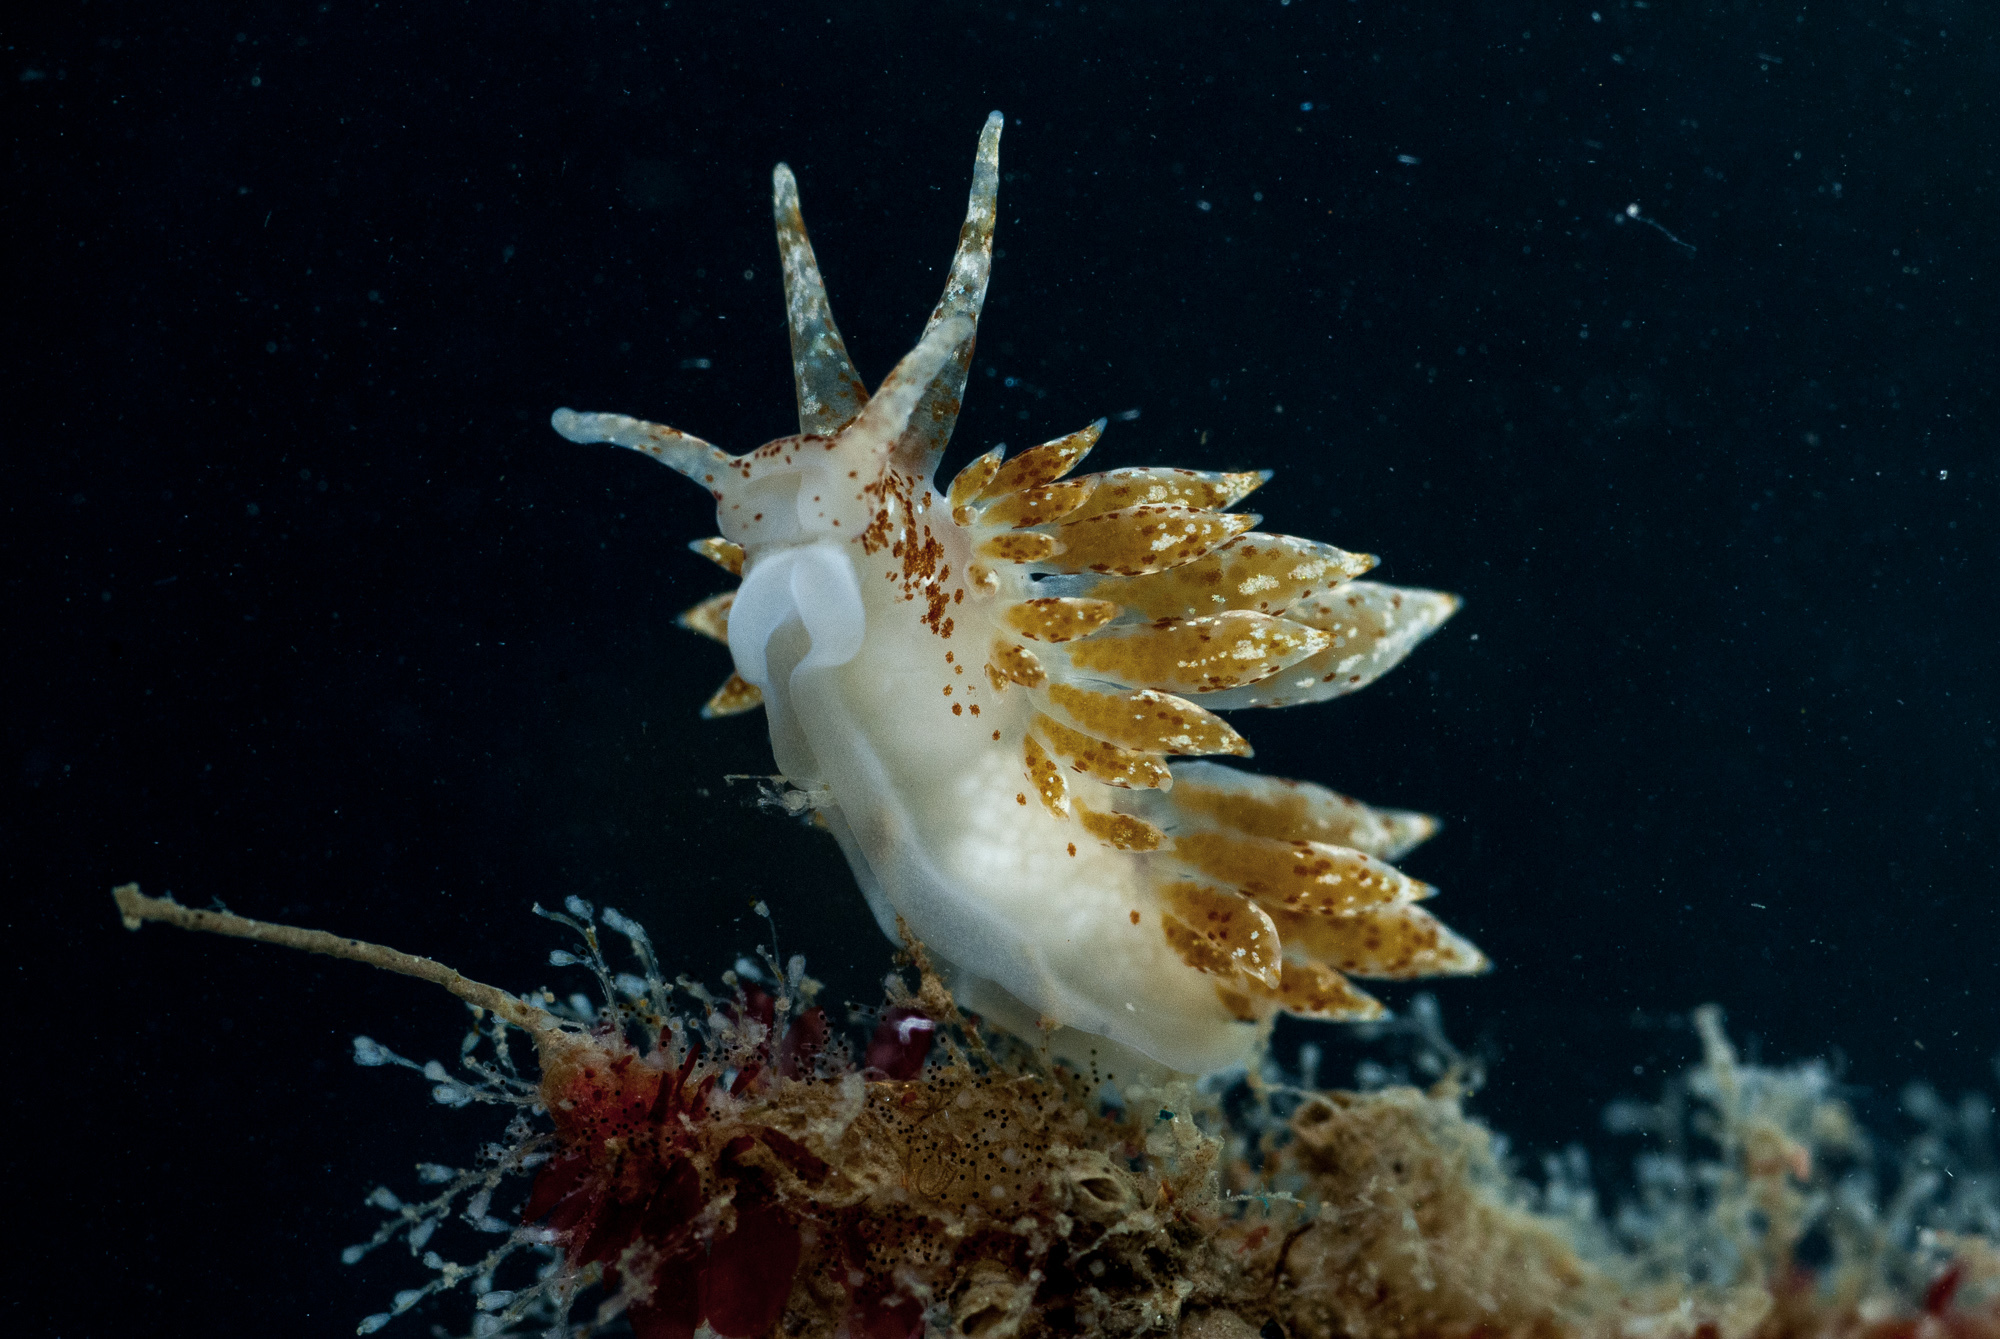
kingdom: Animalia
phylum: Mollusca
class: Gastropoda
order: Nudibranchia
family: Eubranchidae
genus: Amphorina
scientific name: Amphorina pallida
